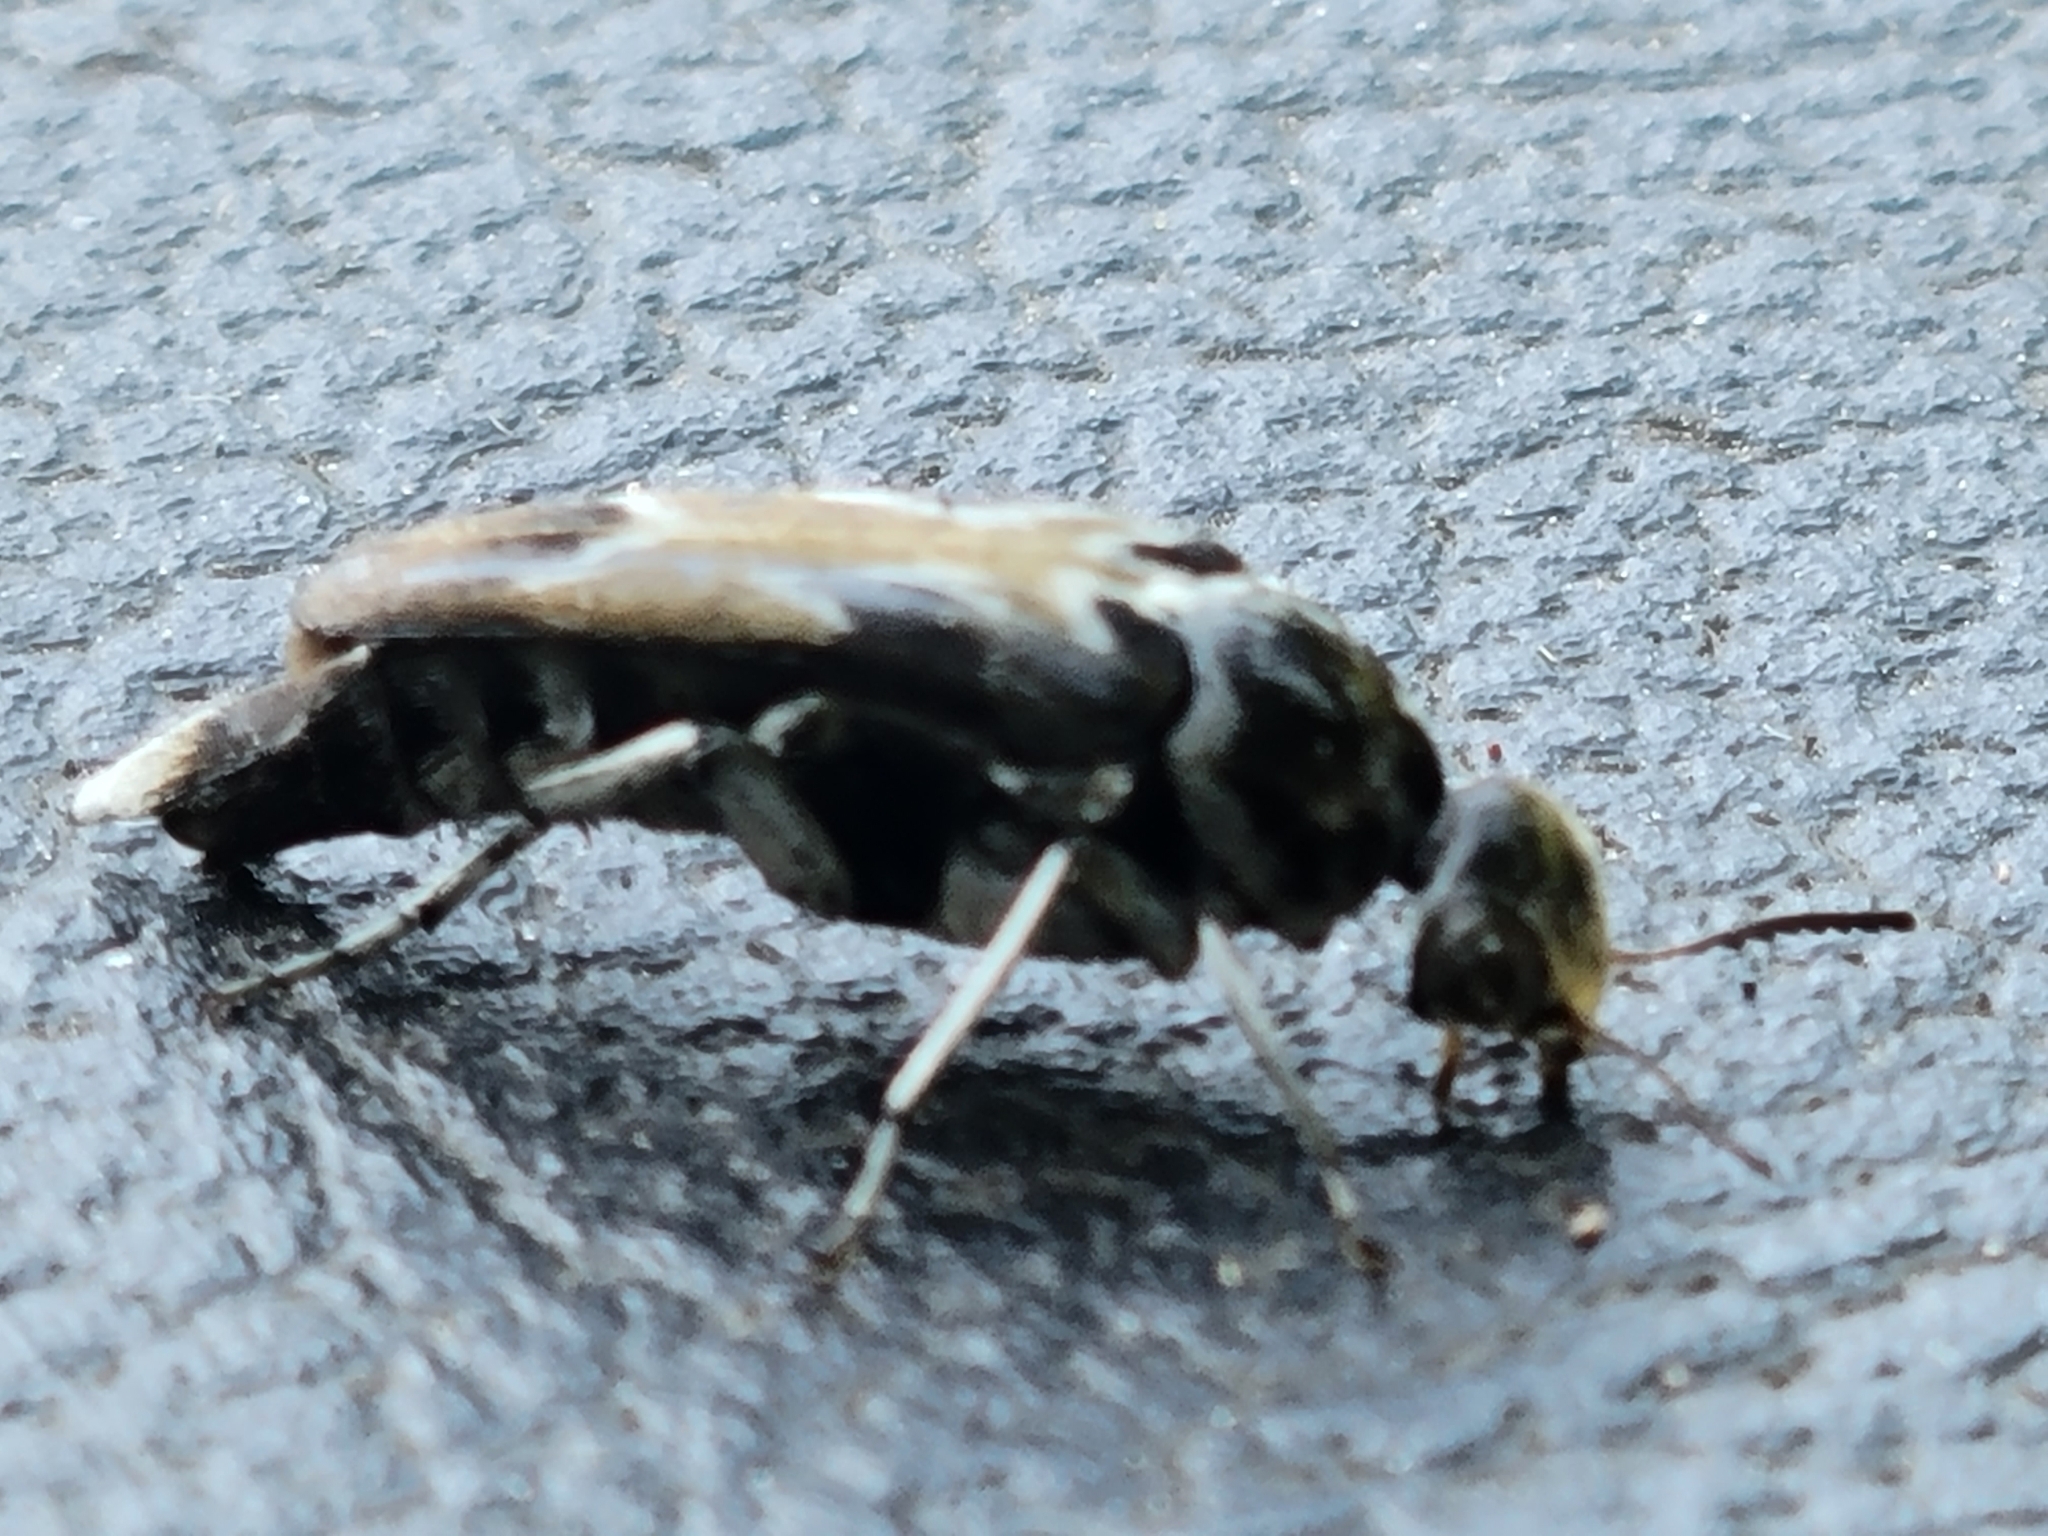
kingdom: Animalia
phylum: Arthropoda
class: Insecta
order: Coleoptera
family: Mordellidae
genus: Glipa
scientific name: Glipa hilaris
